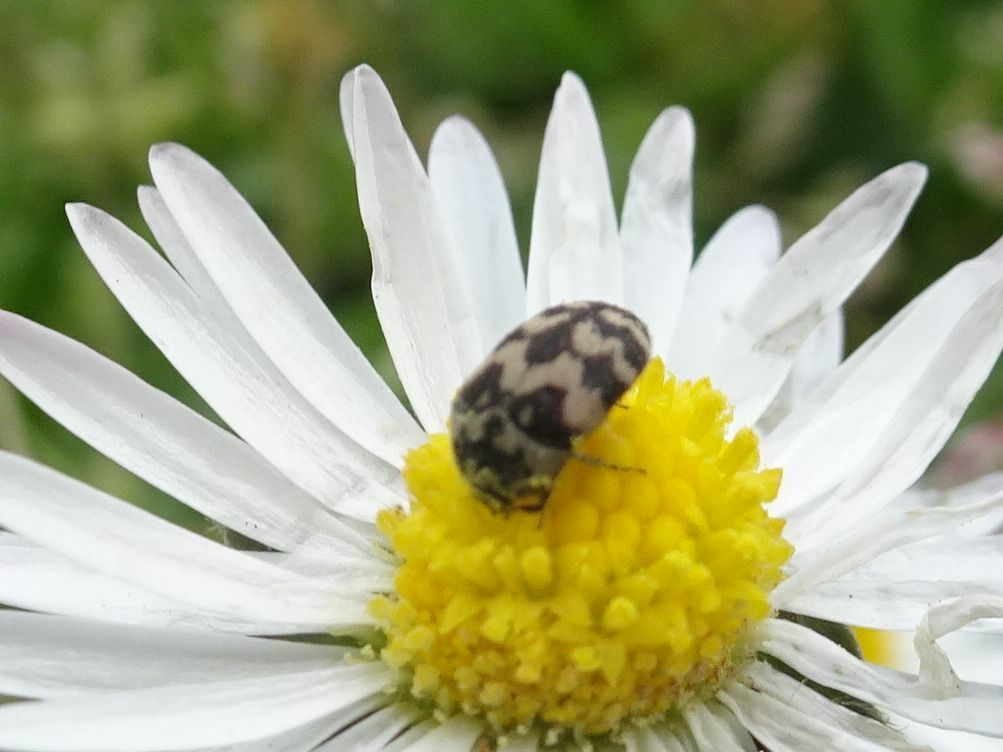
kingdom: Animalia
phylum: Arthropoda
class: Insecta
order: Coleoptera
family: Dermestidae
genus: Attagenus
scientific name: Attagenus trifasciatus
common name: Carpet beetle
